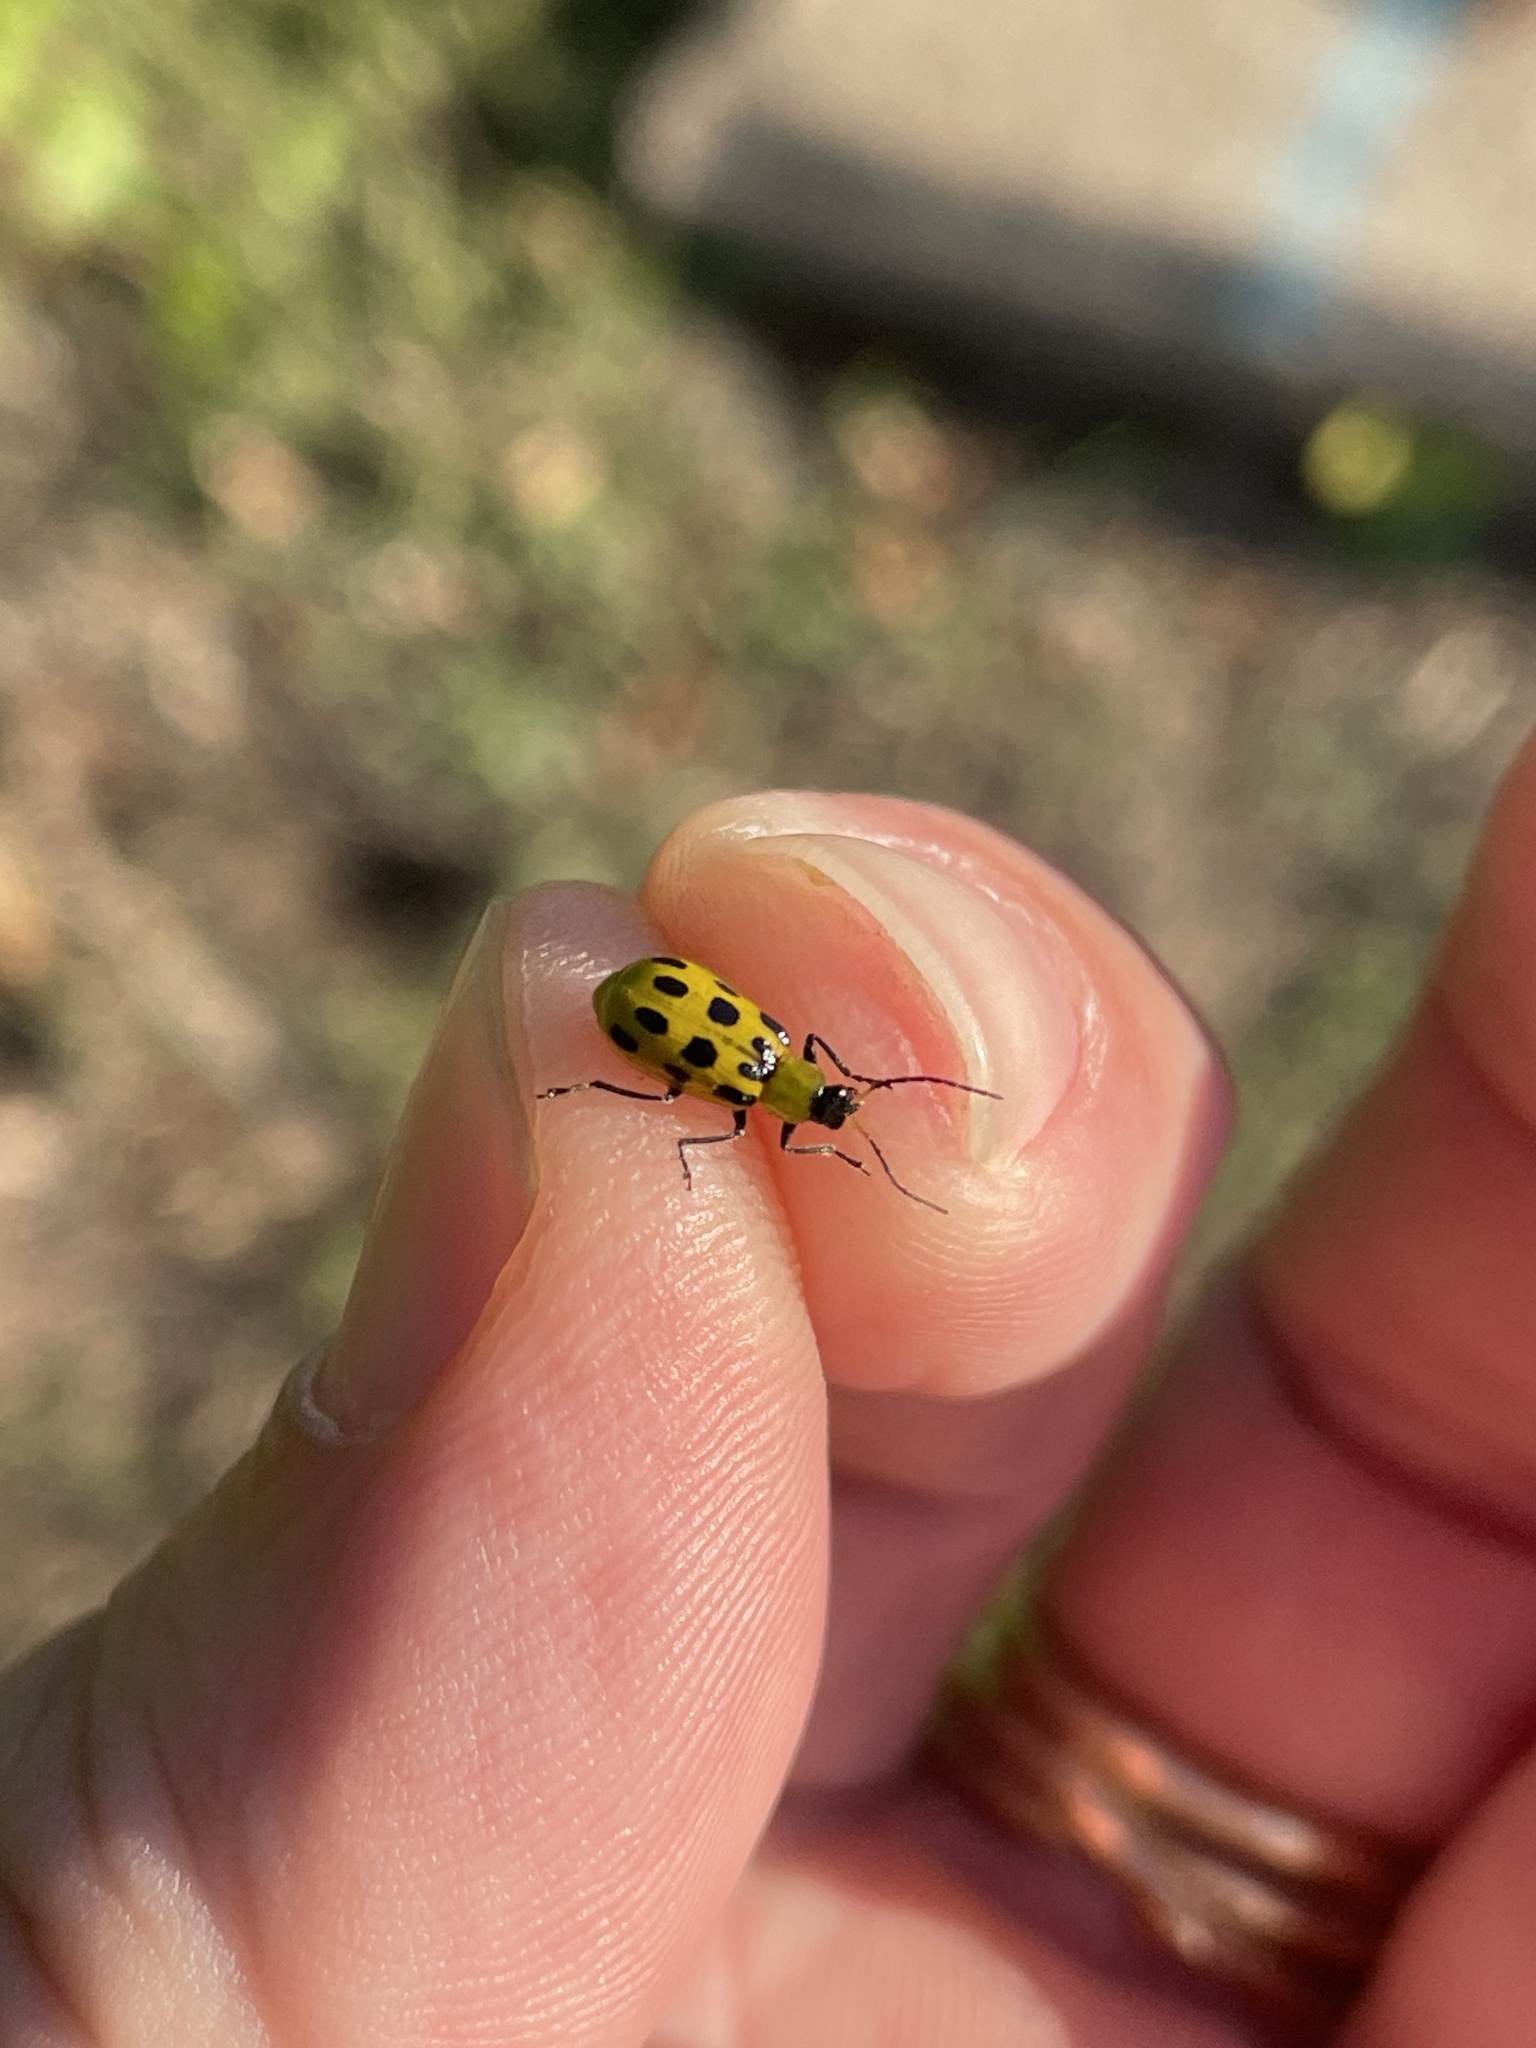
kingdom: Animalia
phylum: Arthropoda
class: Insecta
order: Coleoptera
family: Chrysomelidae
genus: Diabrotica
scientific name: Diabrotica undecimpunctata
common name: Spotted cucumber beetle
